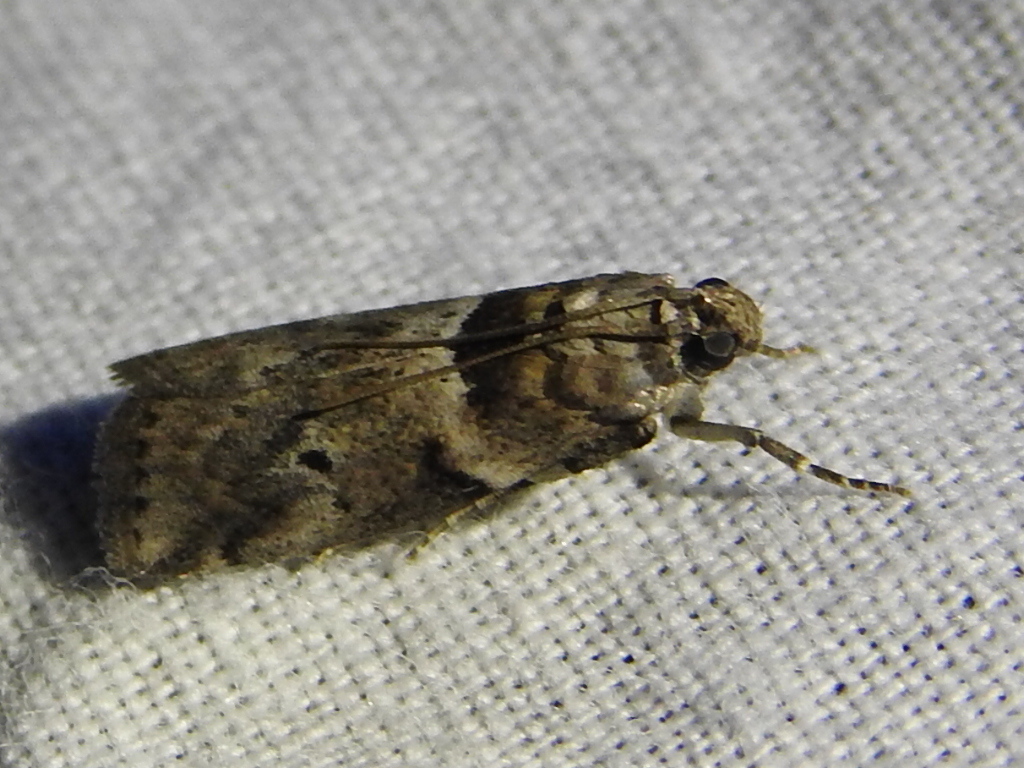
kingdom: Animalia
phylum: Arthropoda
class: Insecta
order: Lepidoptera
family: Pyralidae
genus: Salebriaria
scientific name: Salebriaria annulosella
